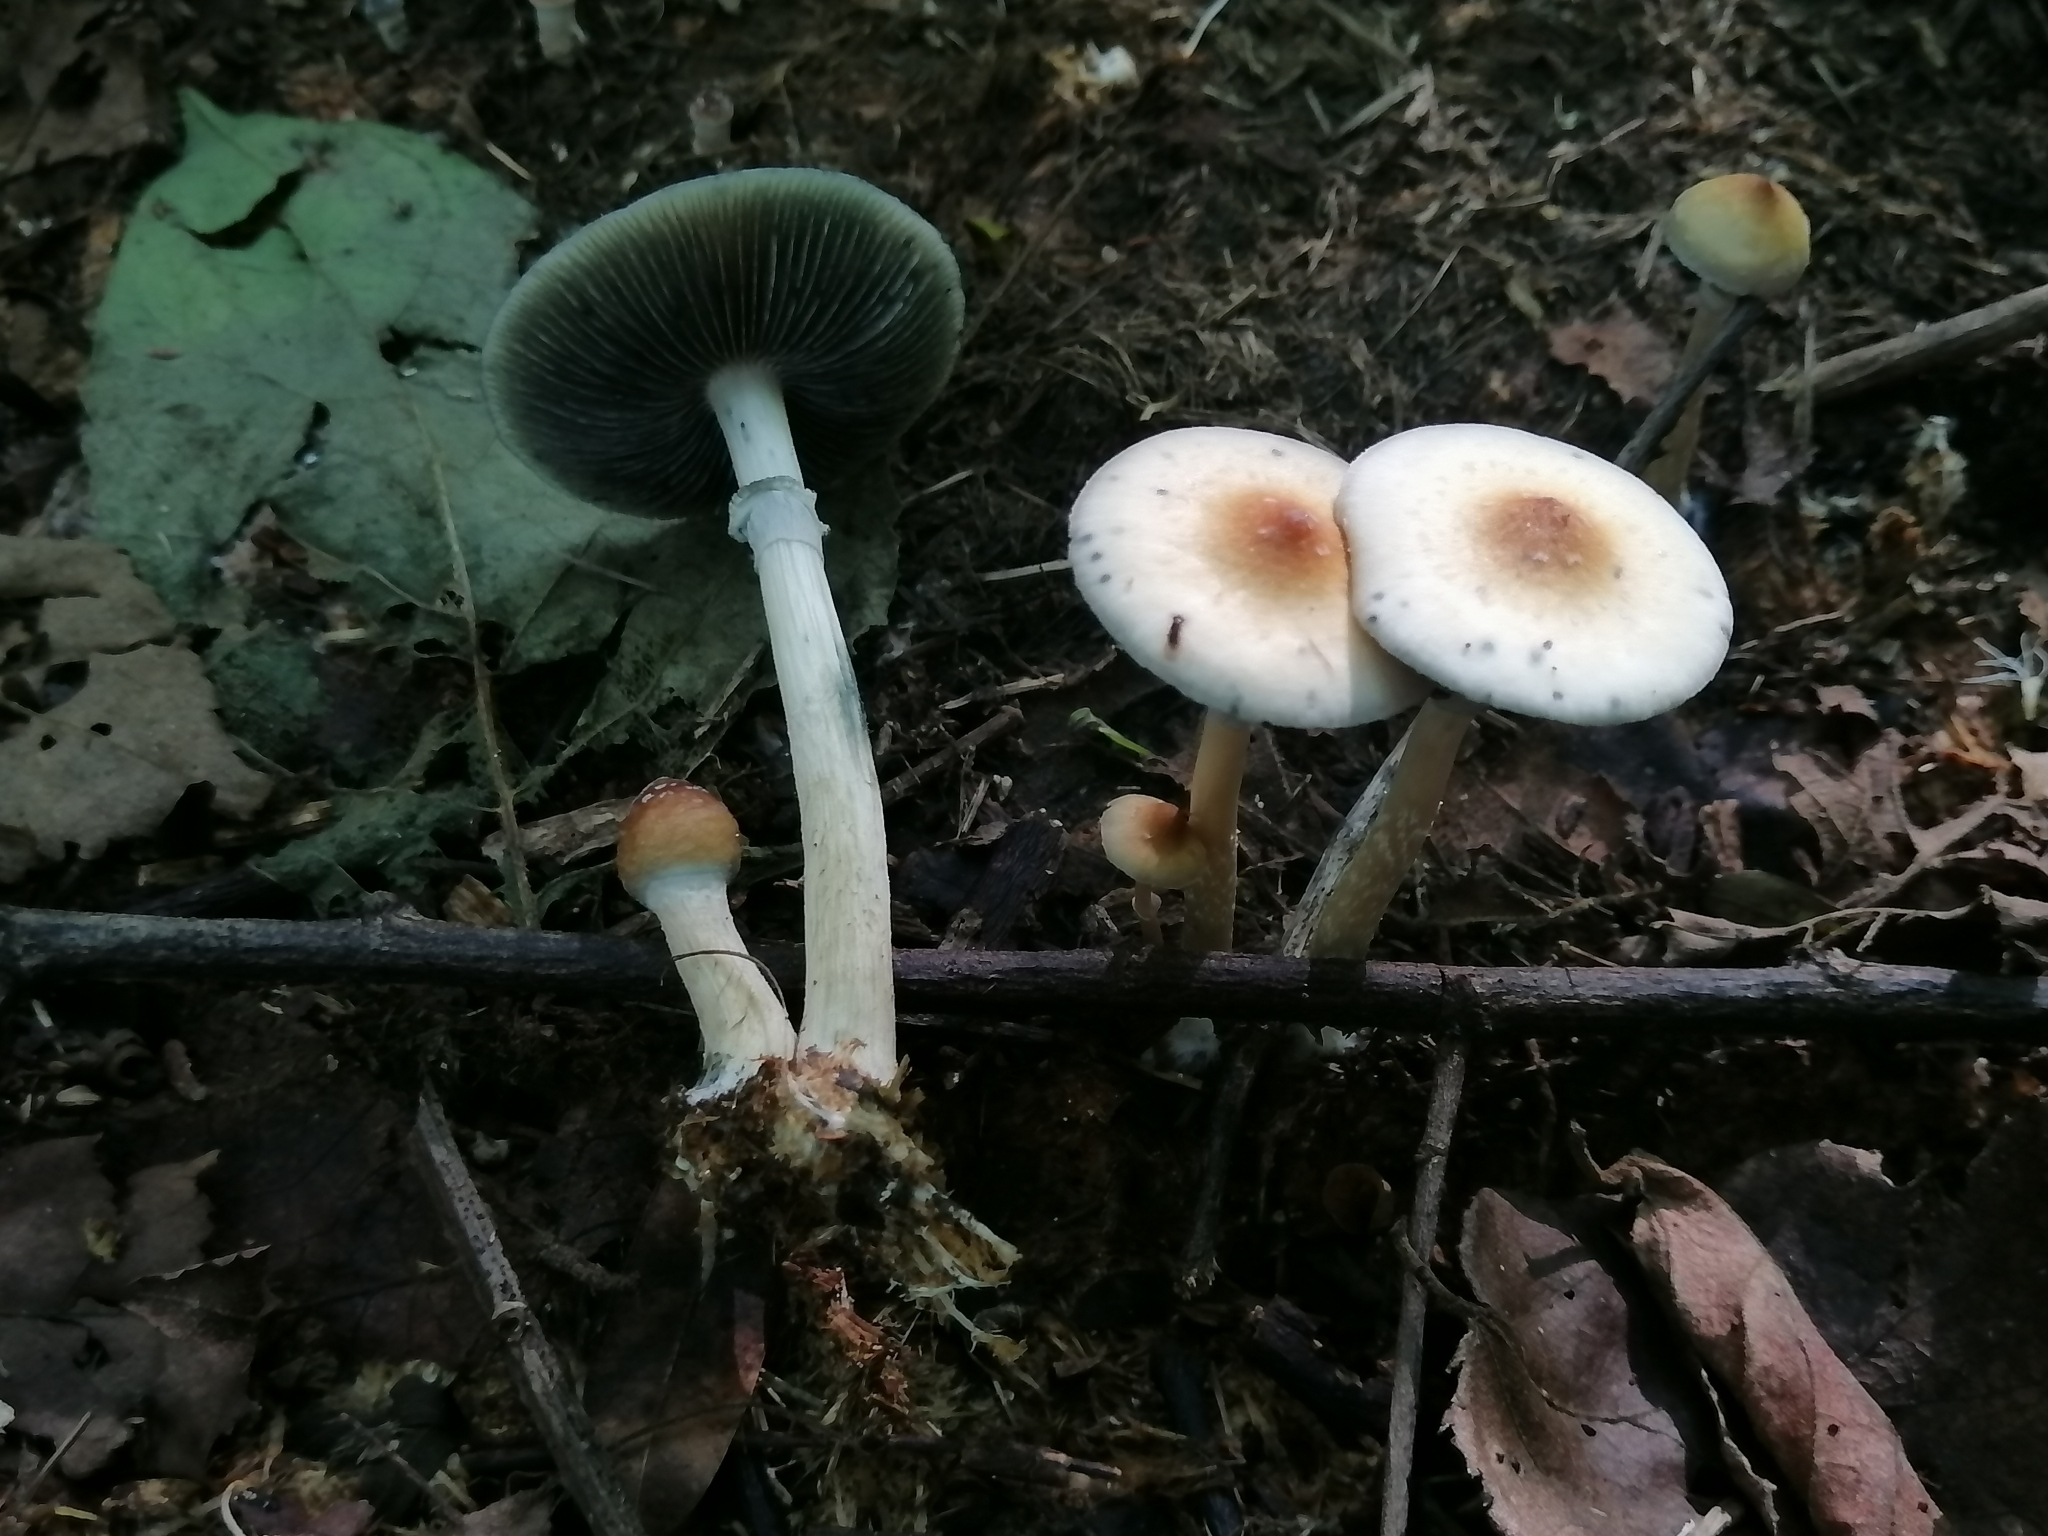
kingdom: Fungi
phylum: Basidiomycota
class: Agaricomycetes
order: Agaricales
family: Hymenogastraceae
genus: Psilocybe
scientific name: Psilocybe cubensis
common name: Golden brownie
